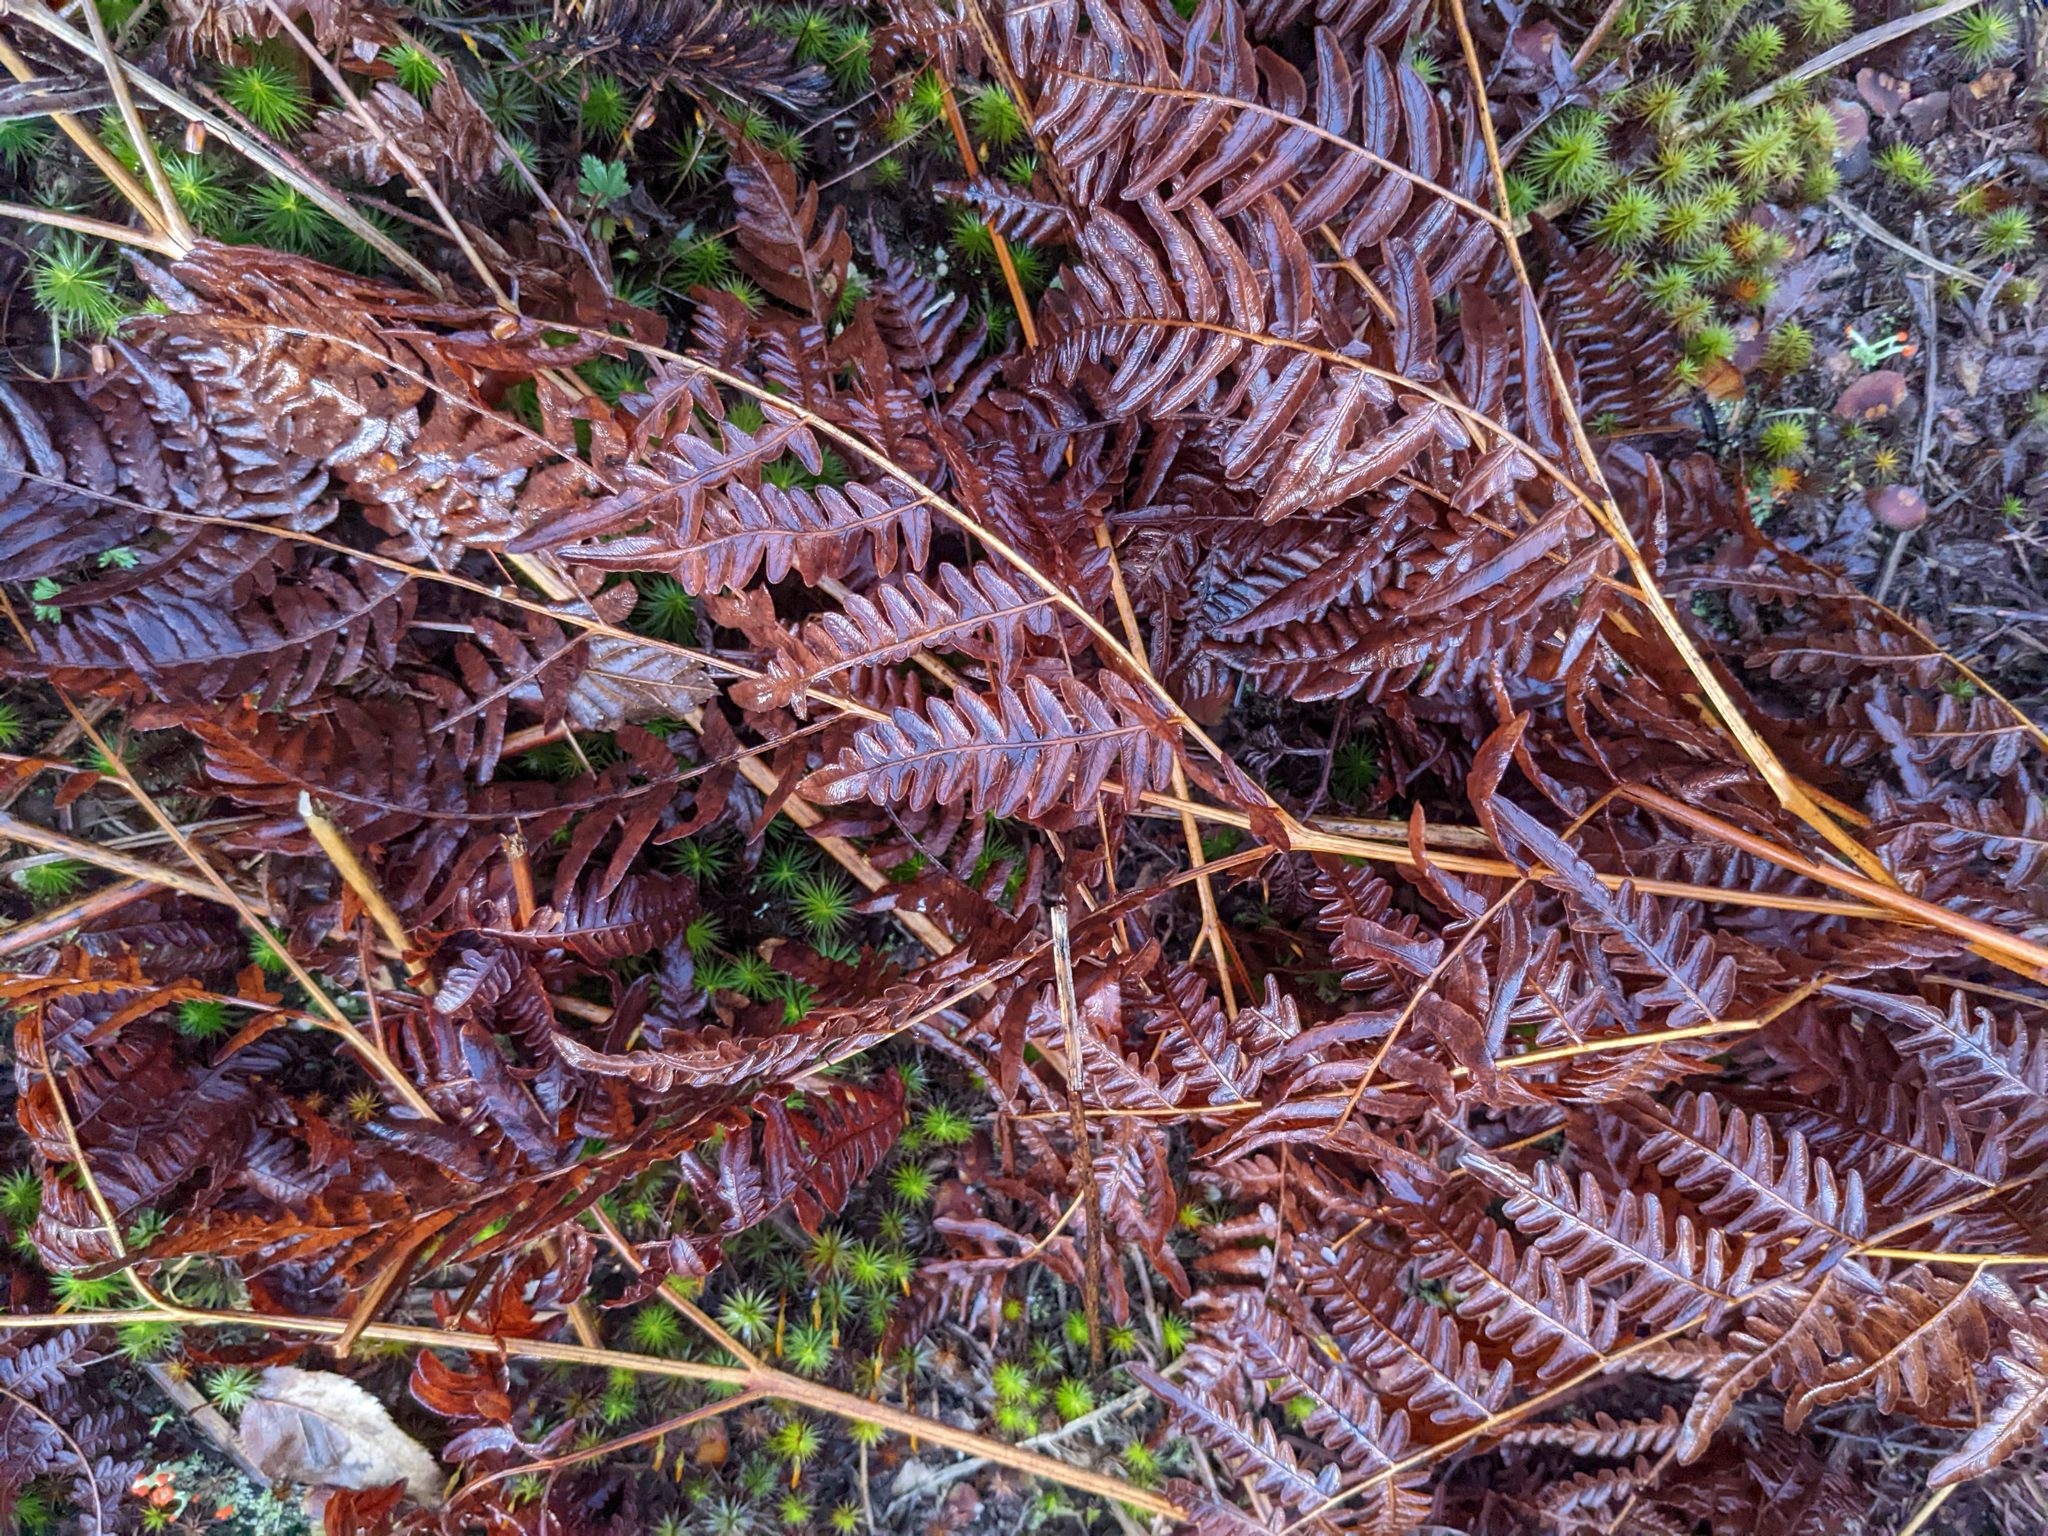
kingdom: Plantae
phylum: Tracheophyta
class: Polypodiopsida
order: Polypodiales
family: Dennstaedtiaceae
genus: Pteridium
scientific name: Pteridium aquilinum
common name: Bracken
